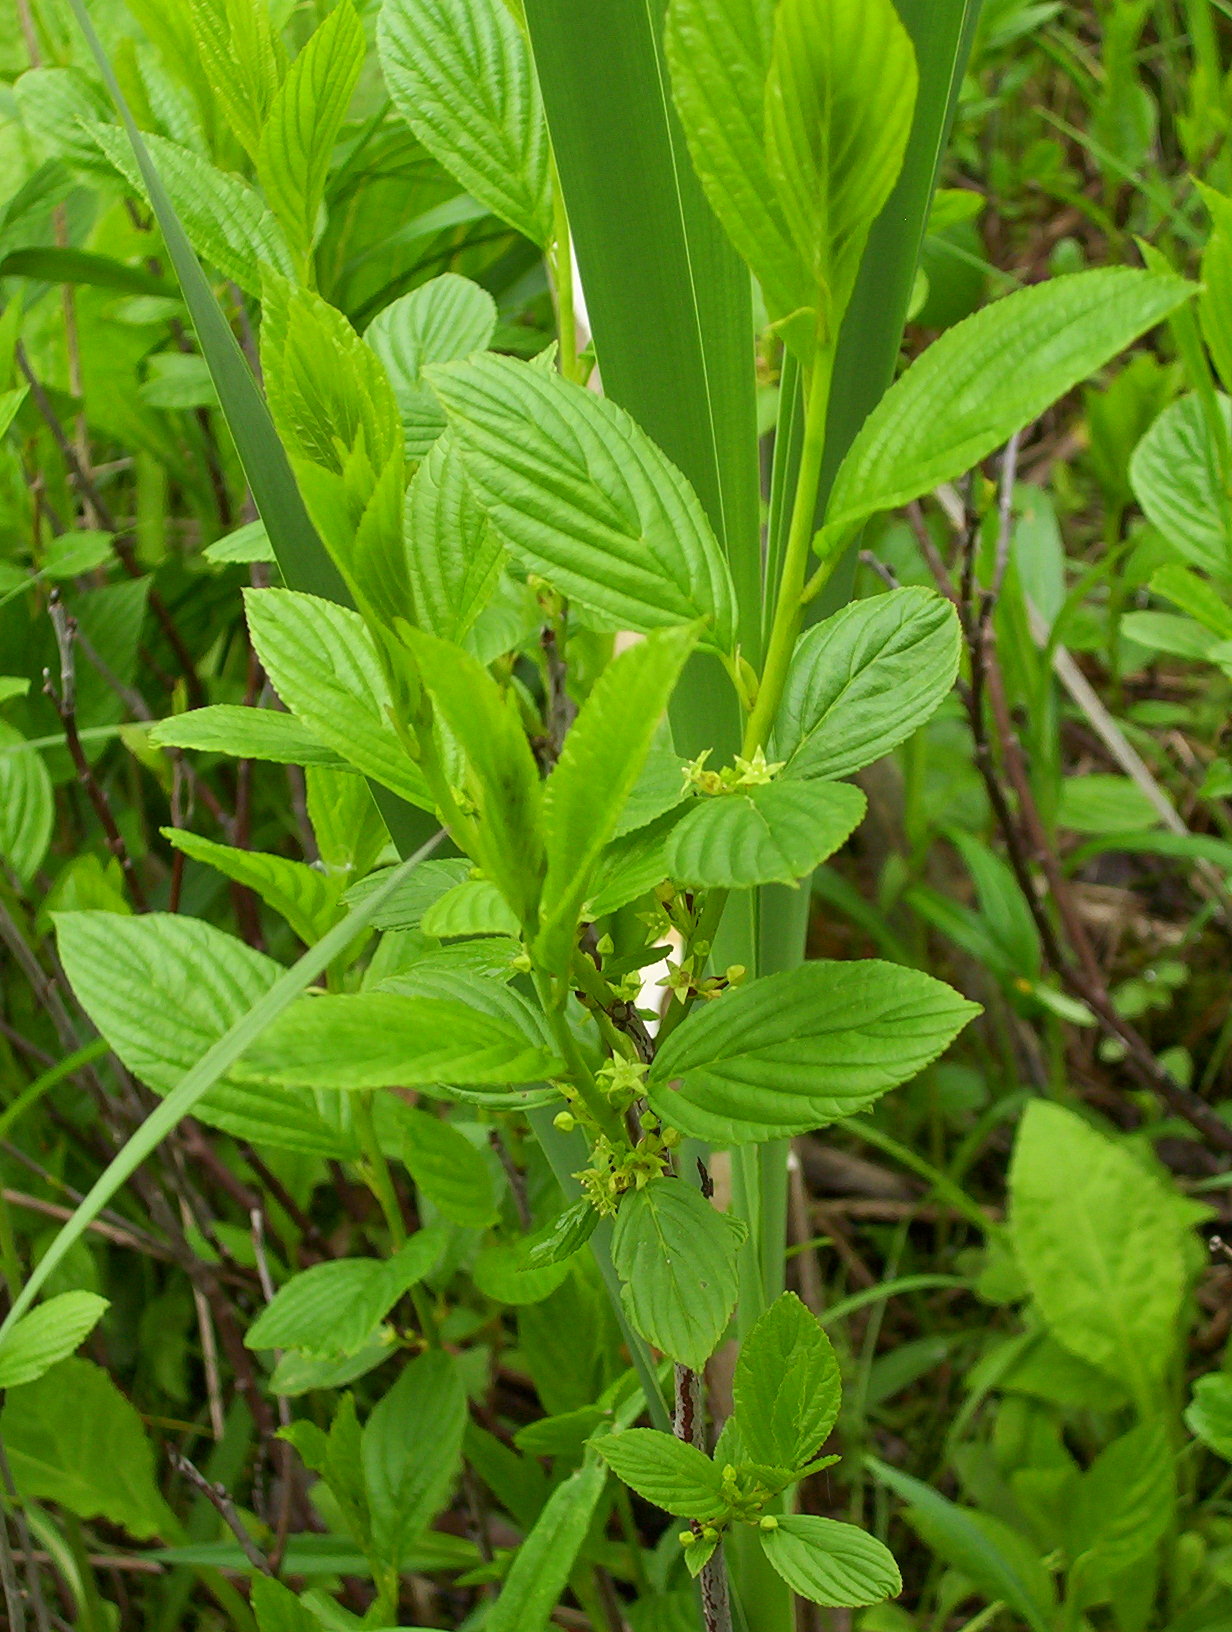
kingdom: Plantae
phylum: Tracheophyta
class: Magnoliopsida
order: Rosales
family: Rhamnaceae
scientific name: Rhamnaceae
